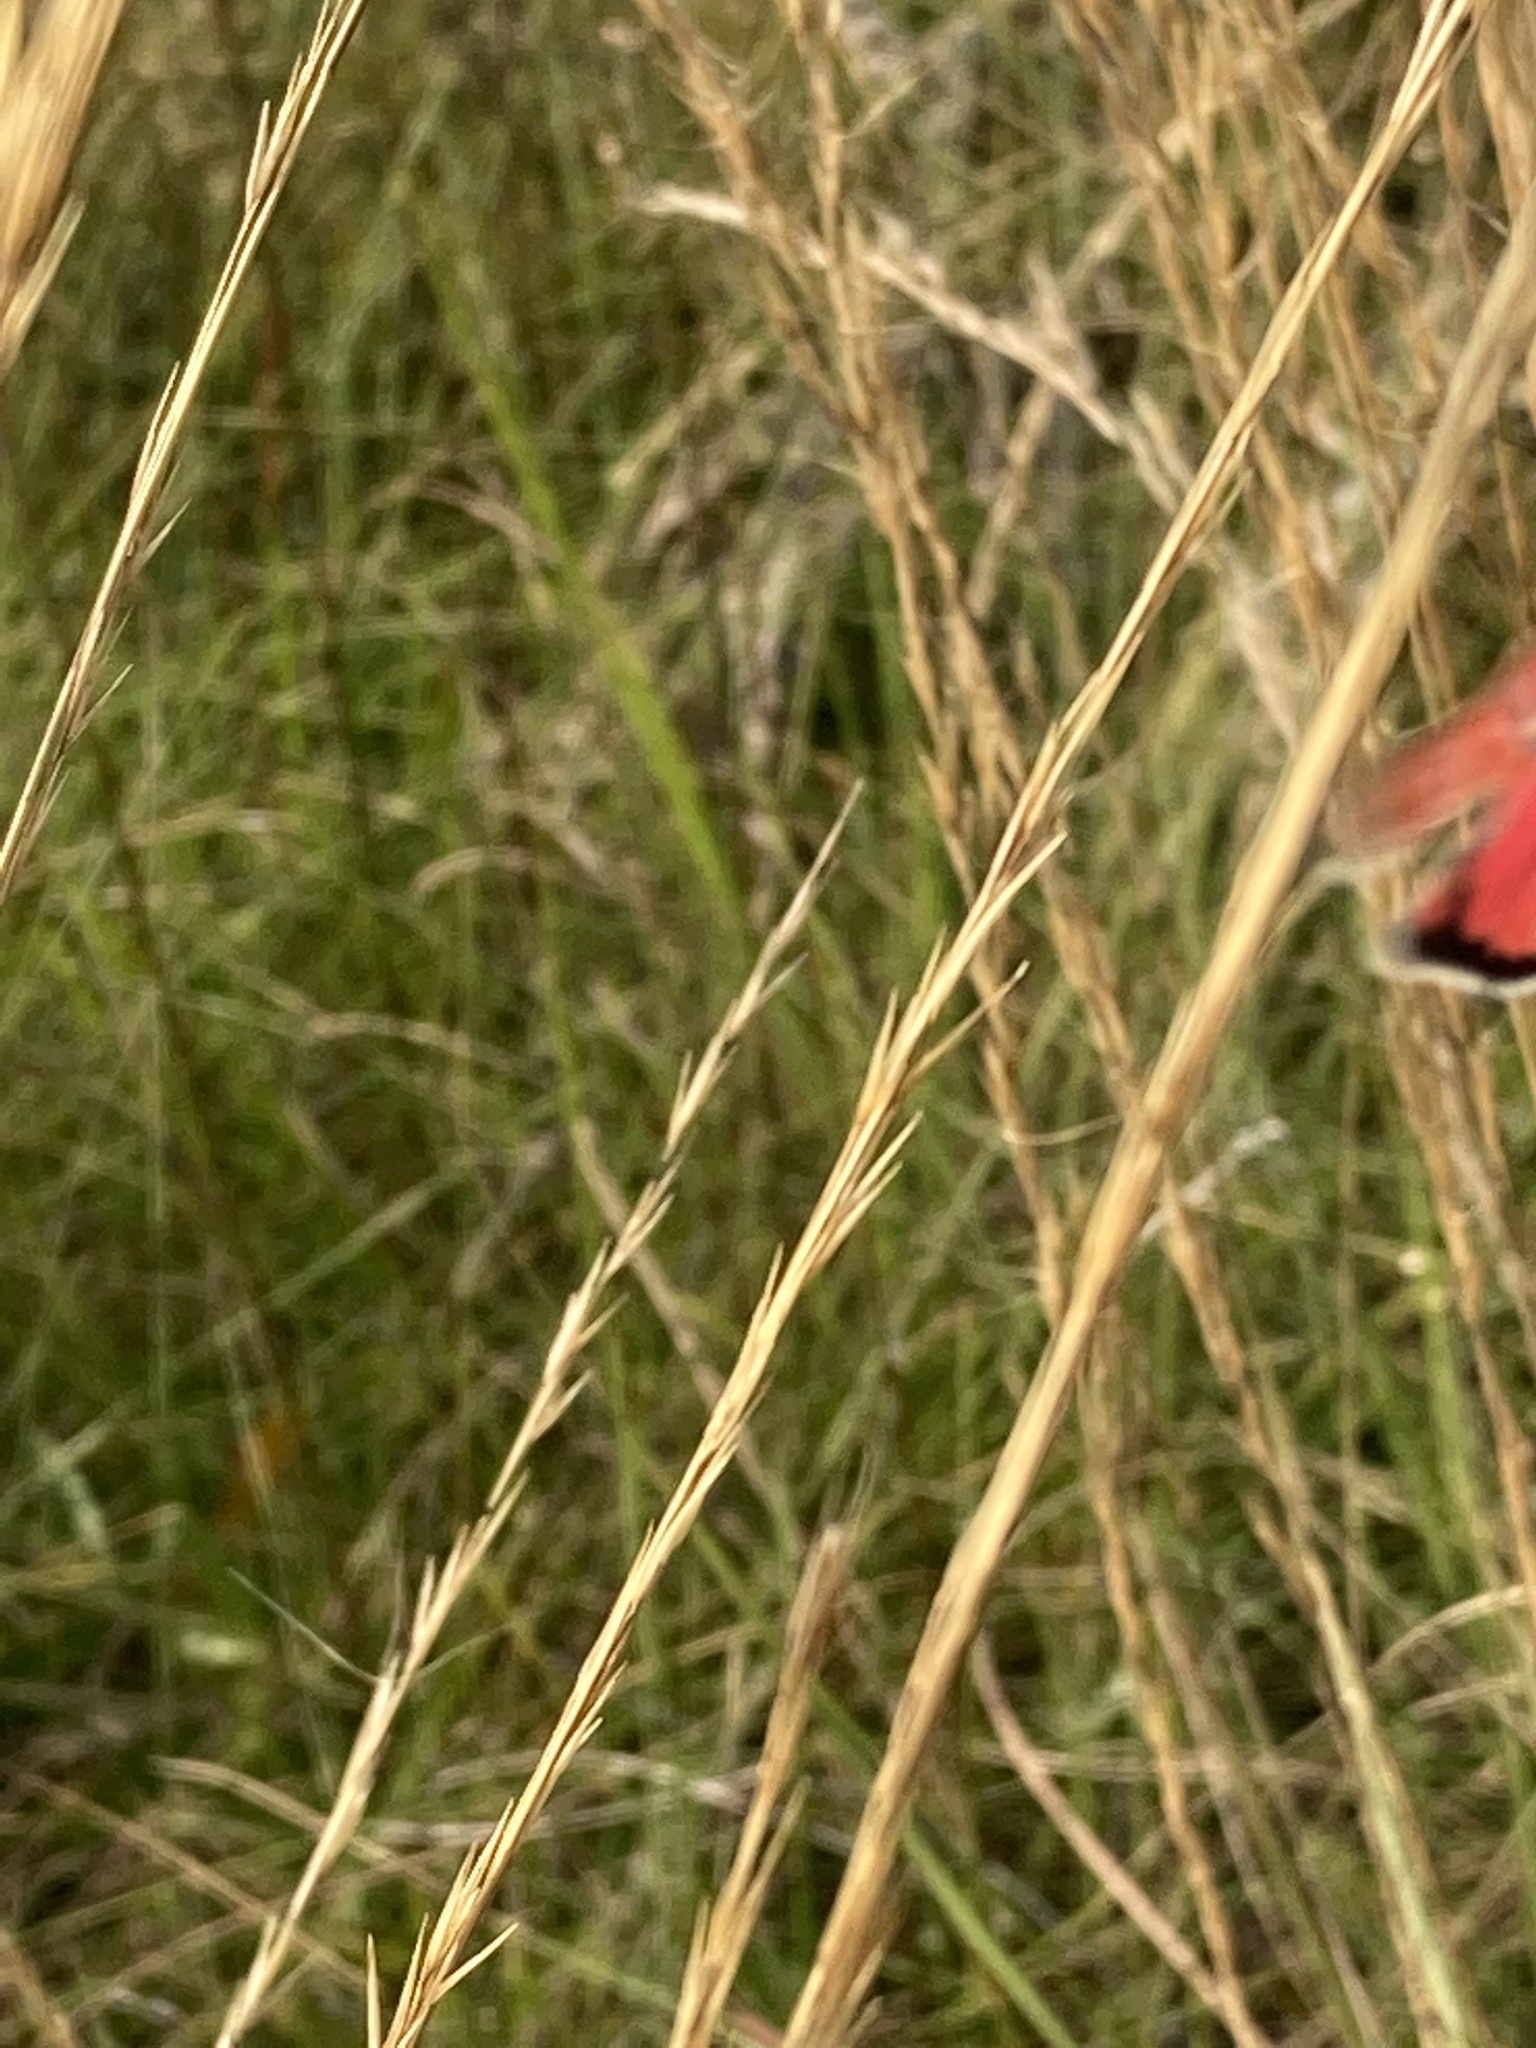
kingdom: Animalia
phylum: Arthropoda
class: Insecta
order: Lepidoptera
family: Erebidae
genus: Utetheisa
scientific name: Utetheisa ornatrix
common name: Beautiful utetheisa
